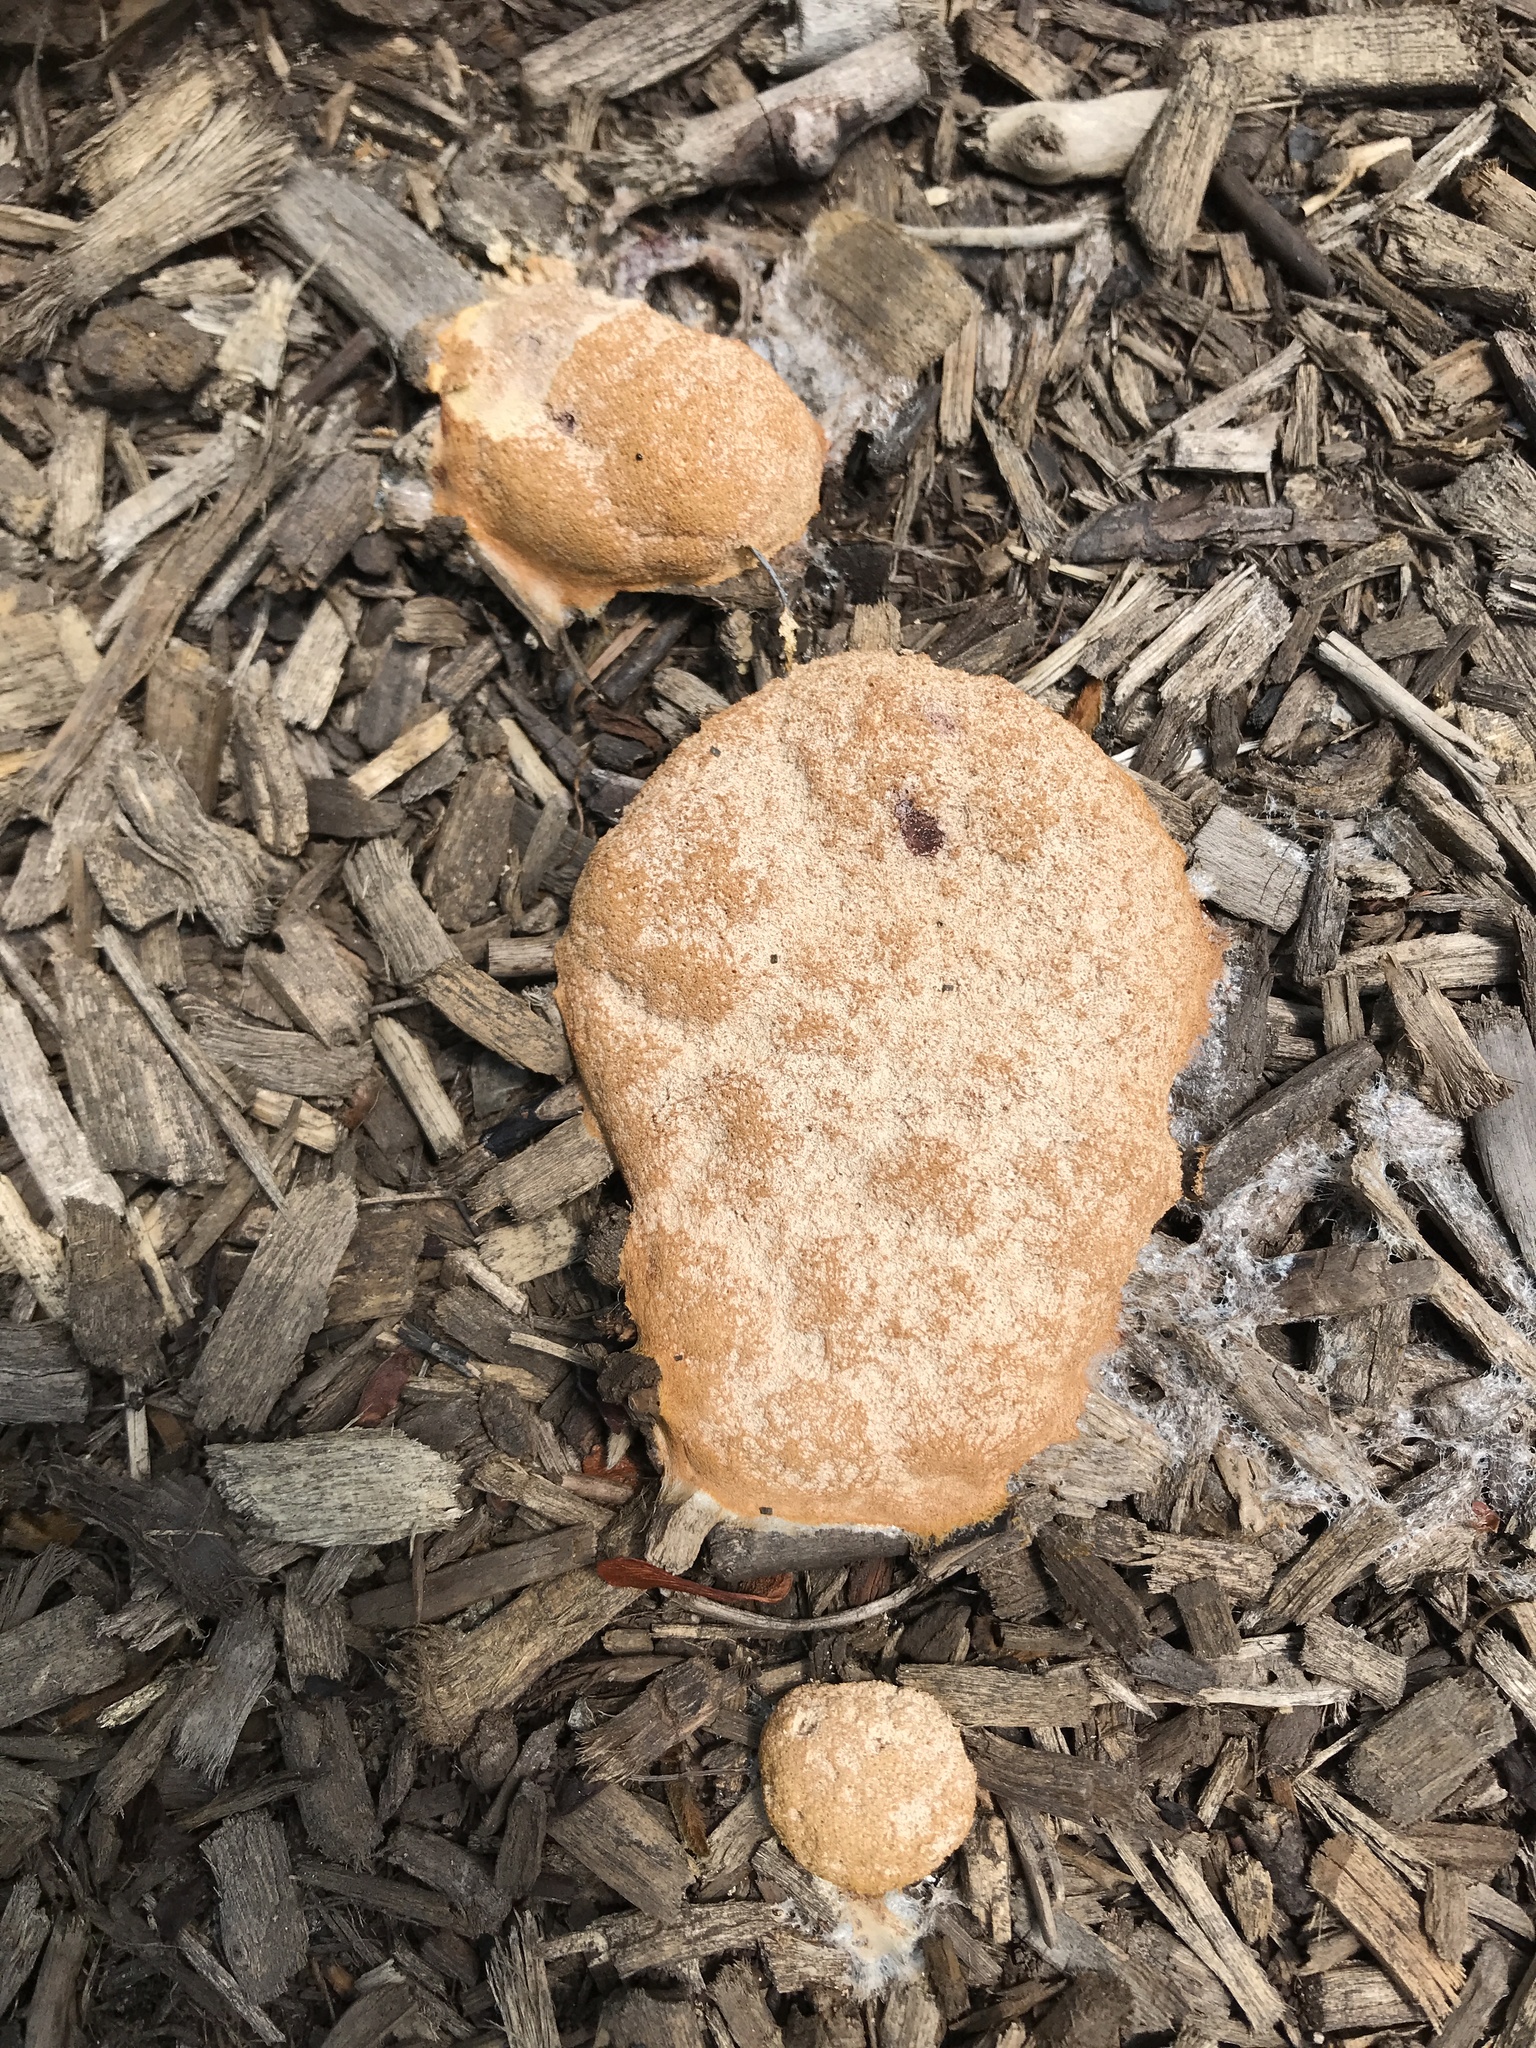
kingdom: Protozoa
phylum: Mycetozoa
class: Myxomycetes
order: Physarales
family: Physaraceae
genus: Fuligo
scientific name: Fuligo septica
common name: Dog vomit slime mold
